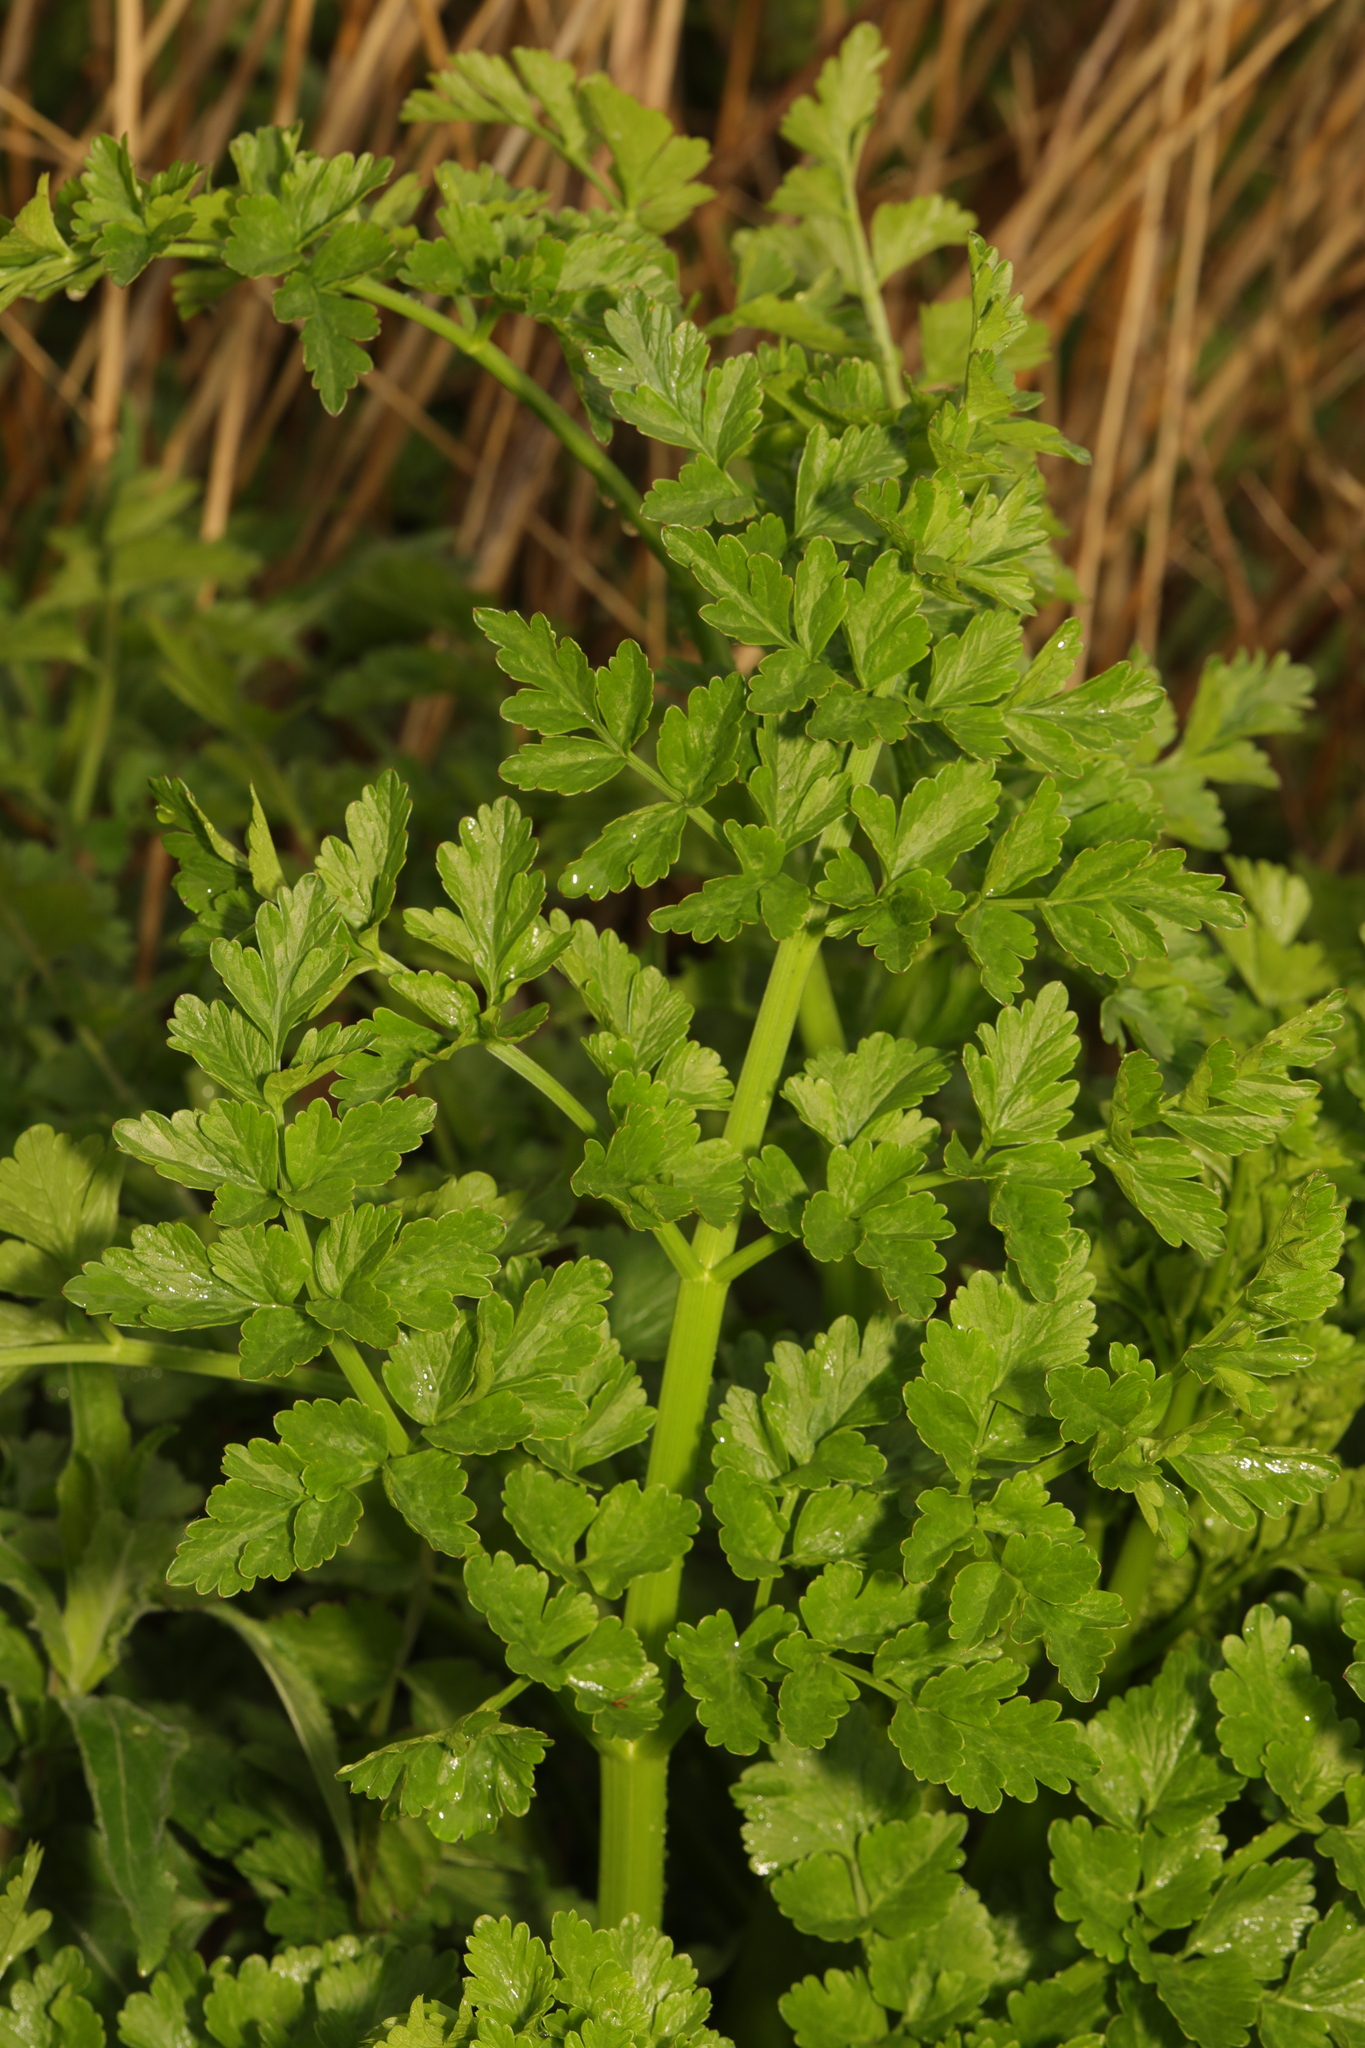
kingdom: Plantae
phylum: Tracheophyta
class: Magnoliopsida
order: Apiales
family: Apiaceae
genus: Oenanthe
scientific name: Oenanthe crocata
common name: Hemlock water-dropwort
